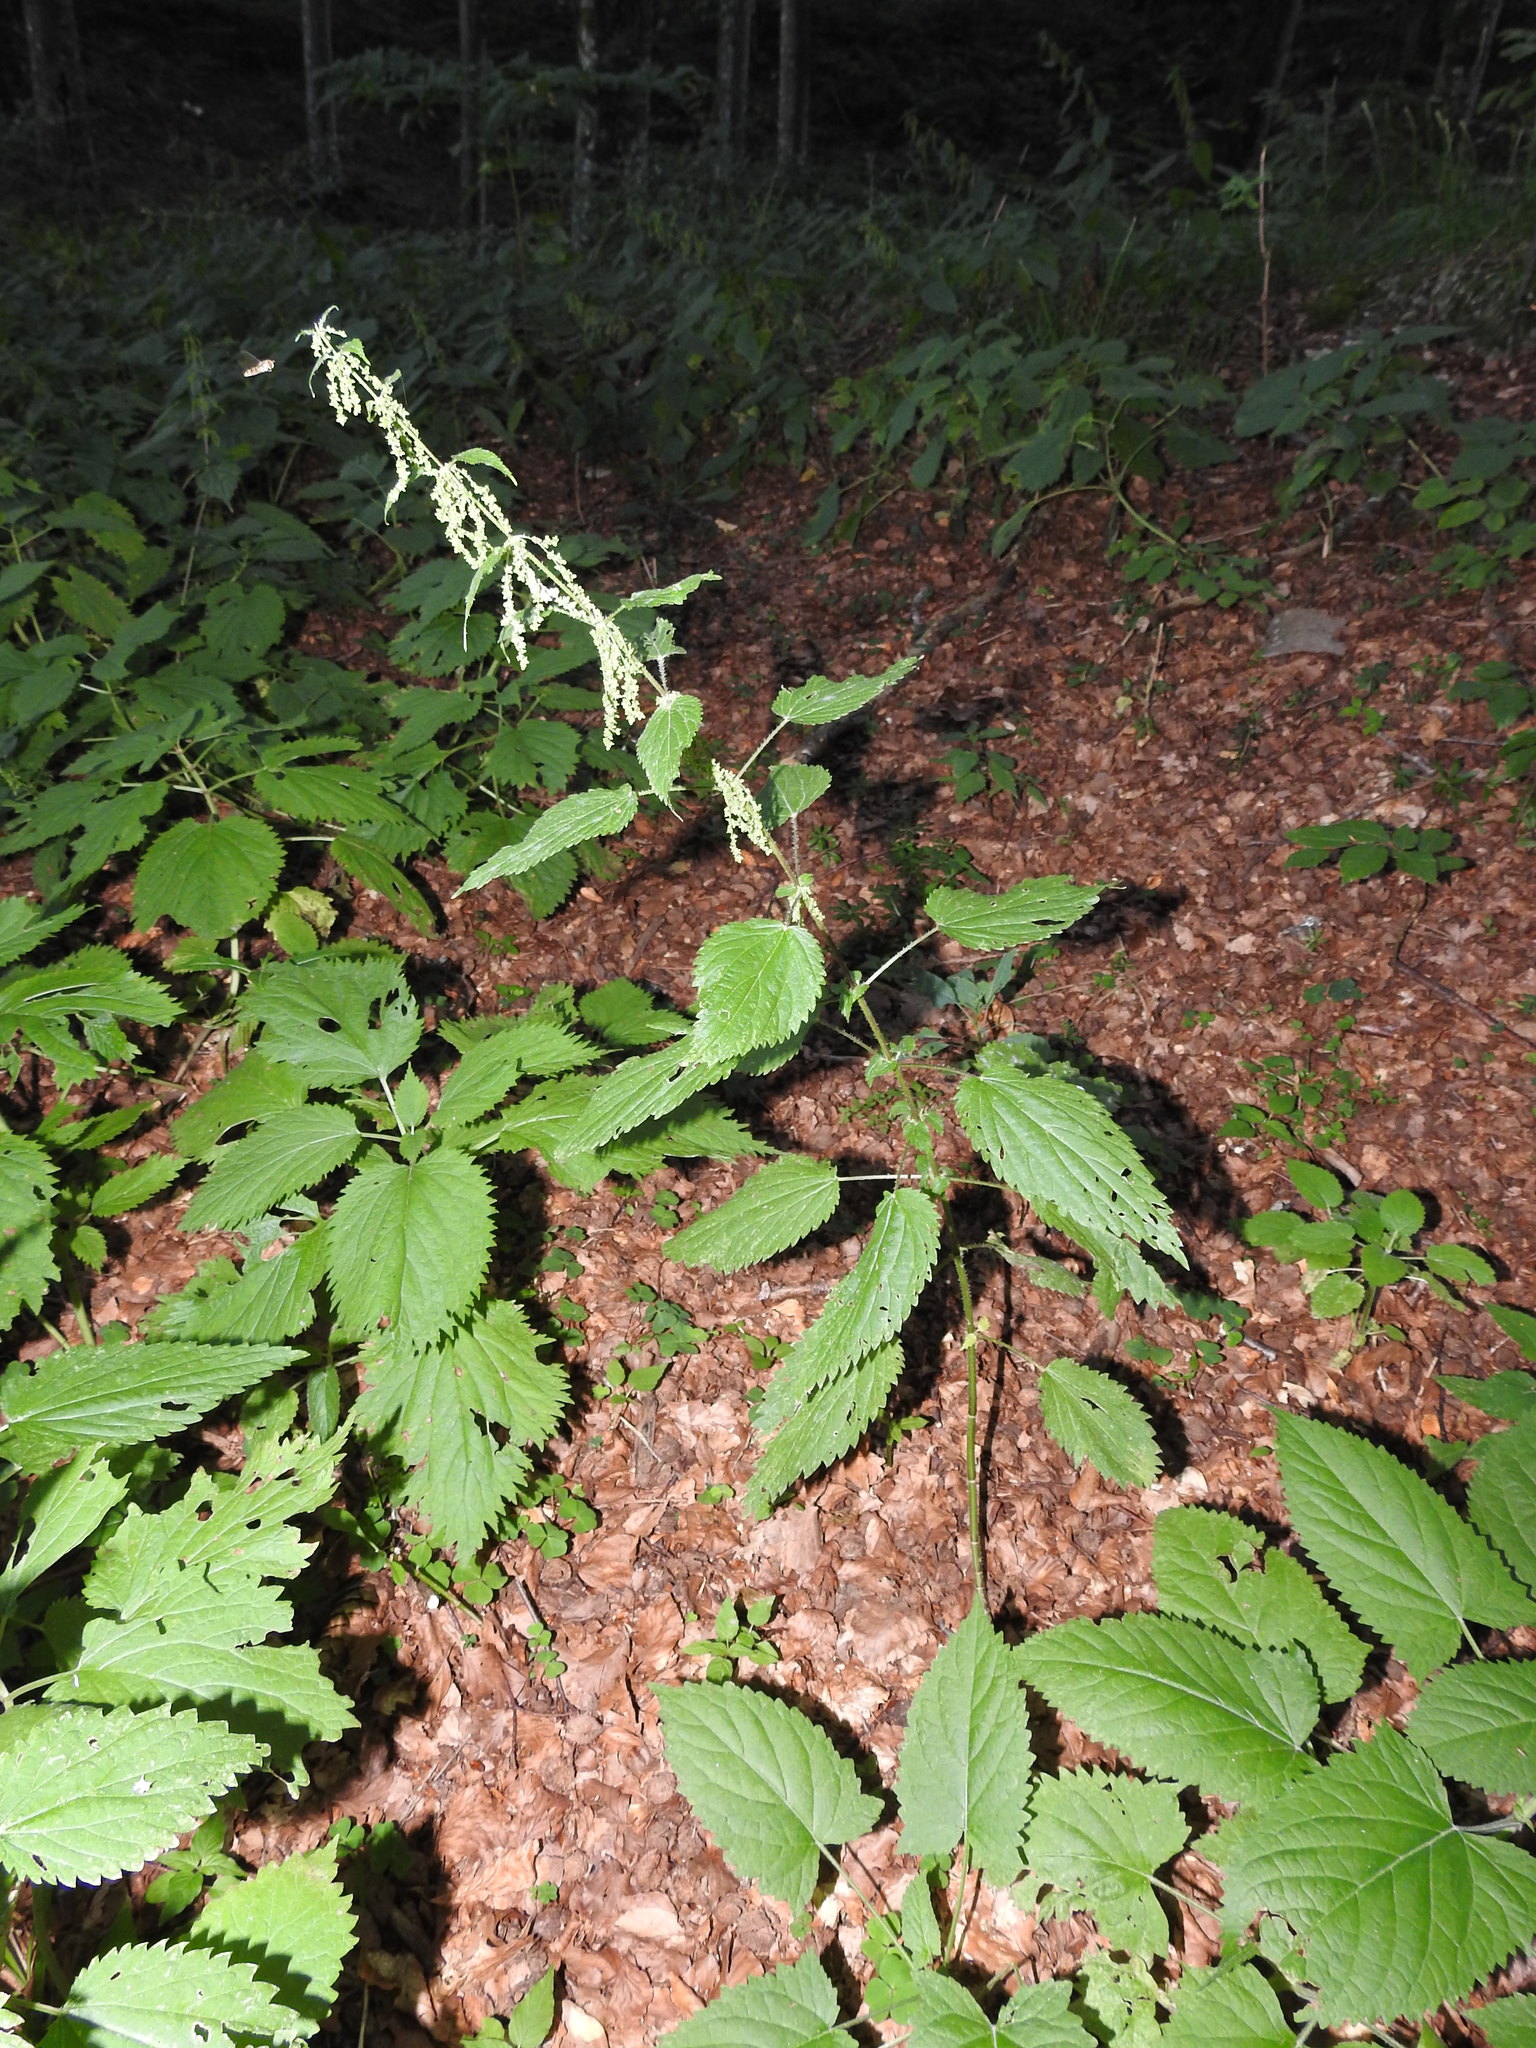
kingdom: Plantae
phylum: Tracheophyta
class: Magnoliopsida
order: Rosales
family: Urticaceae
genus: Urtica
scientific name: Urtica dioica
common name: Common nettle
